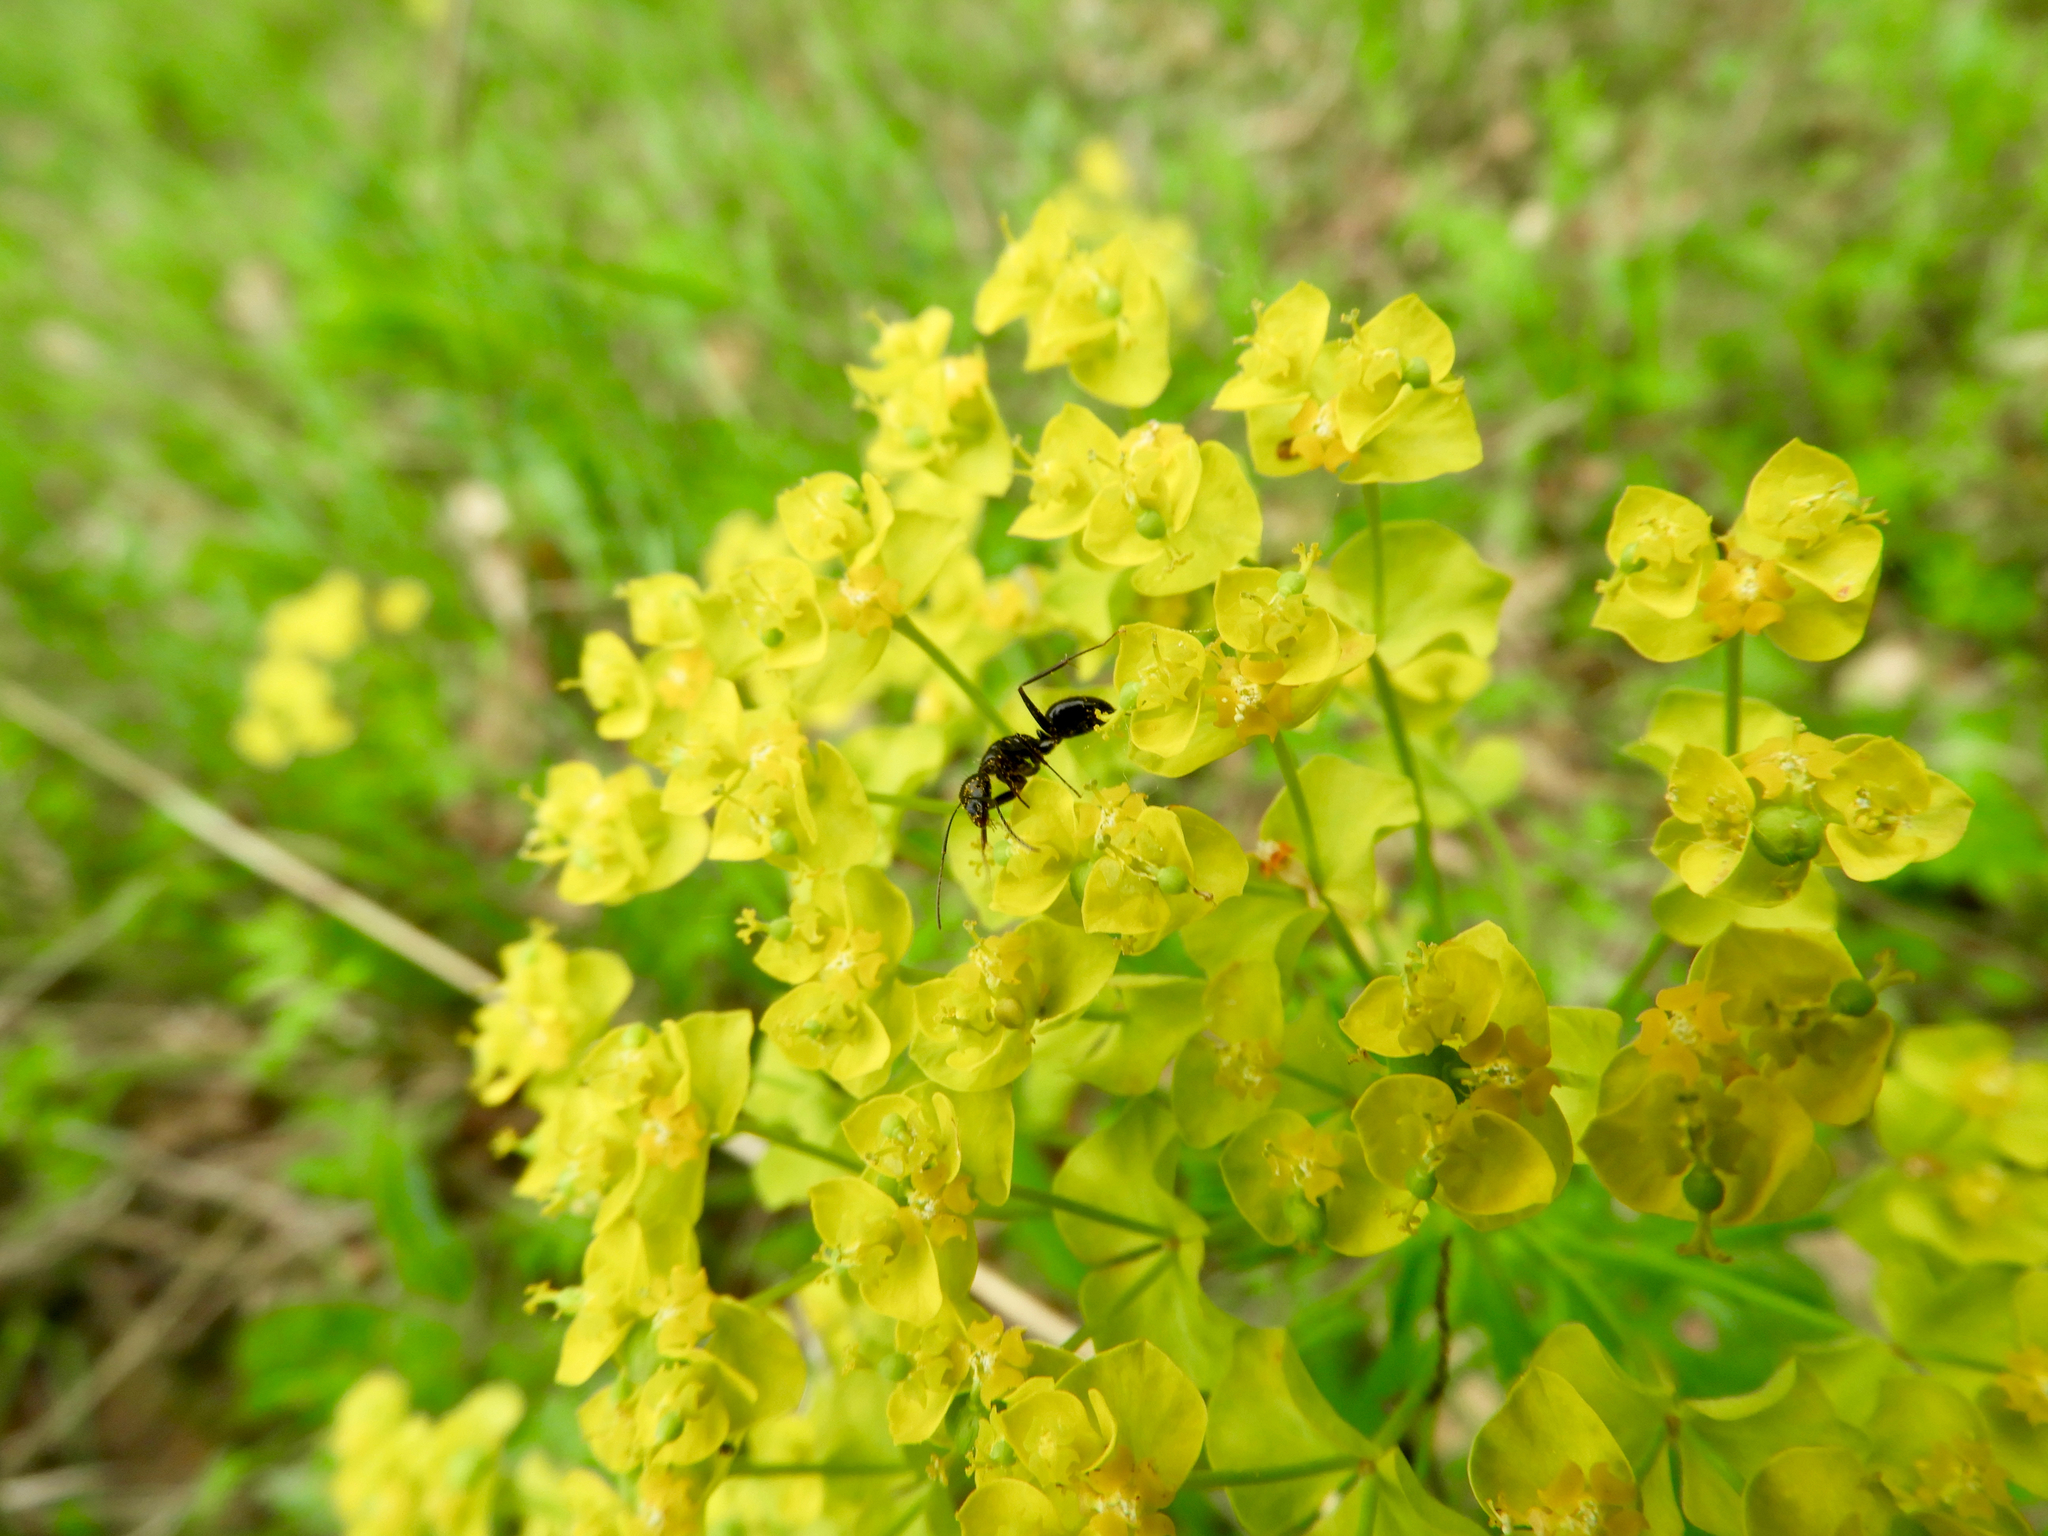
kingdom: Animalia
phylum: Arthropoda
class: Insecta
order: Hymenoptera
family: Formicidae
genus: Camponotus
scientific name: Camponotus aethiops
